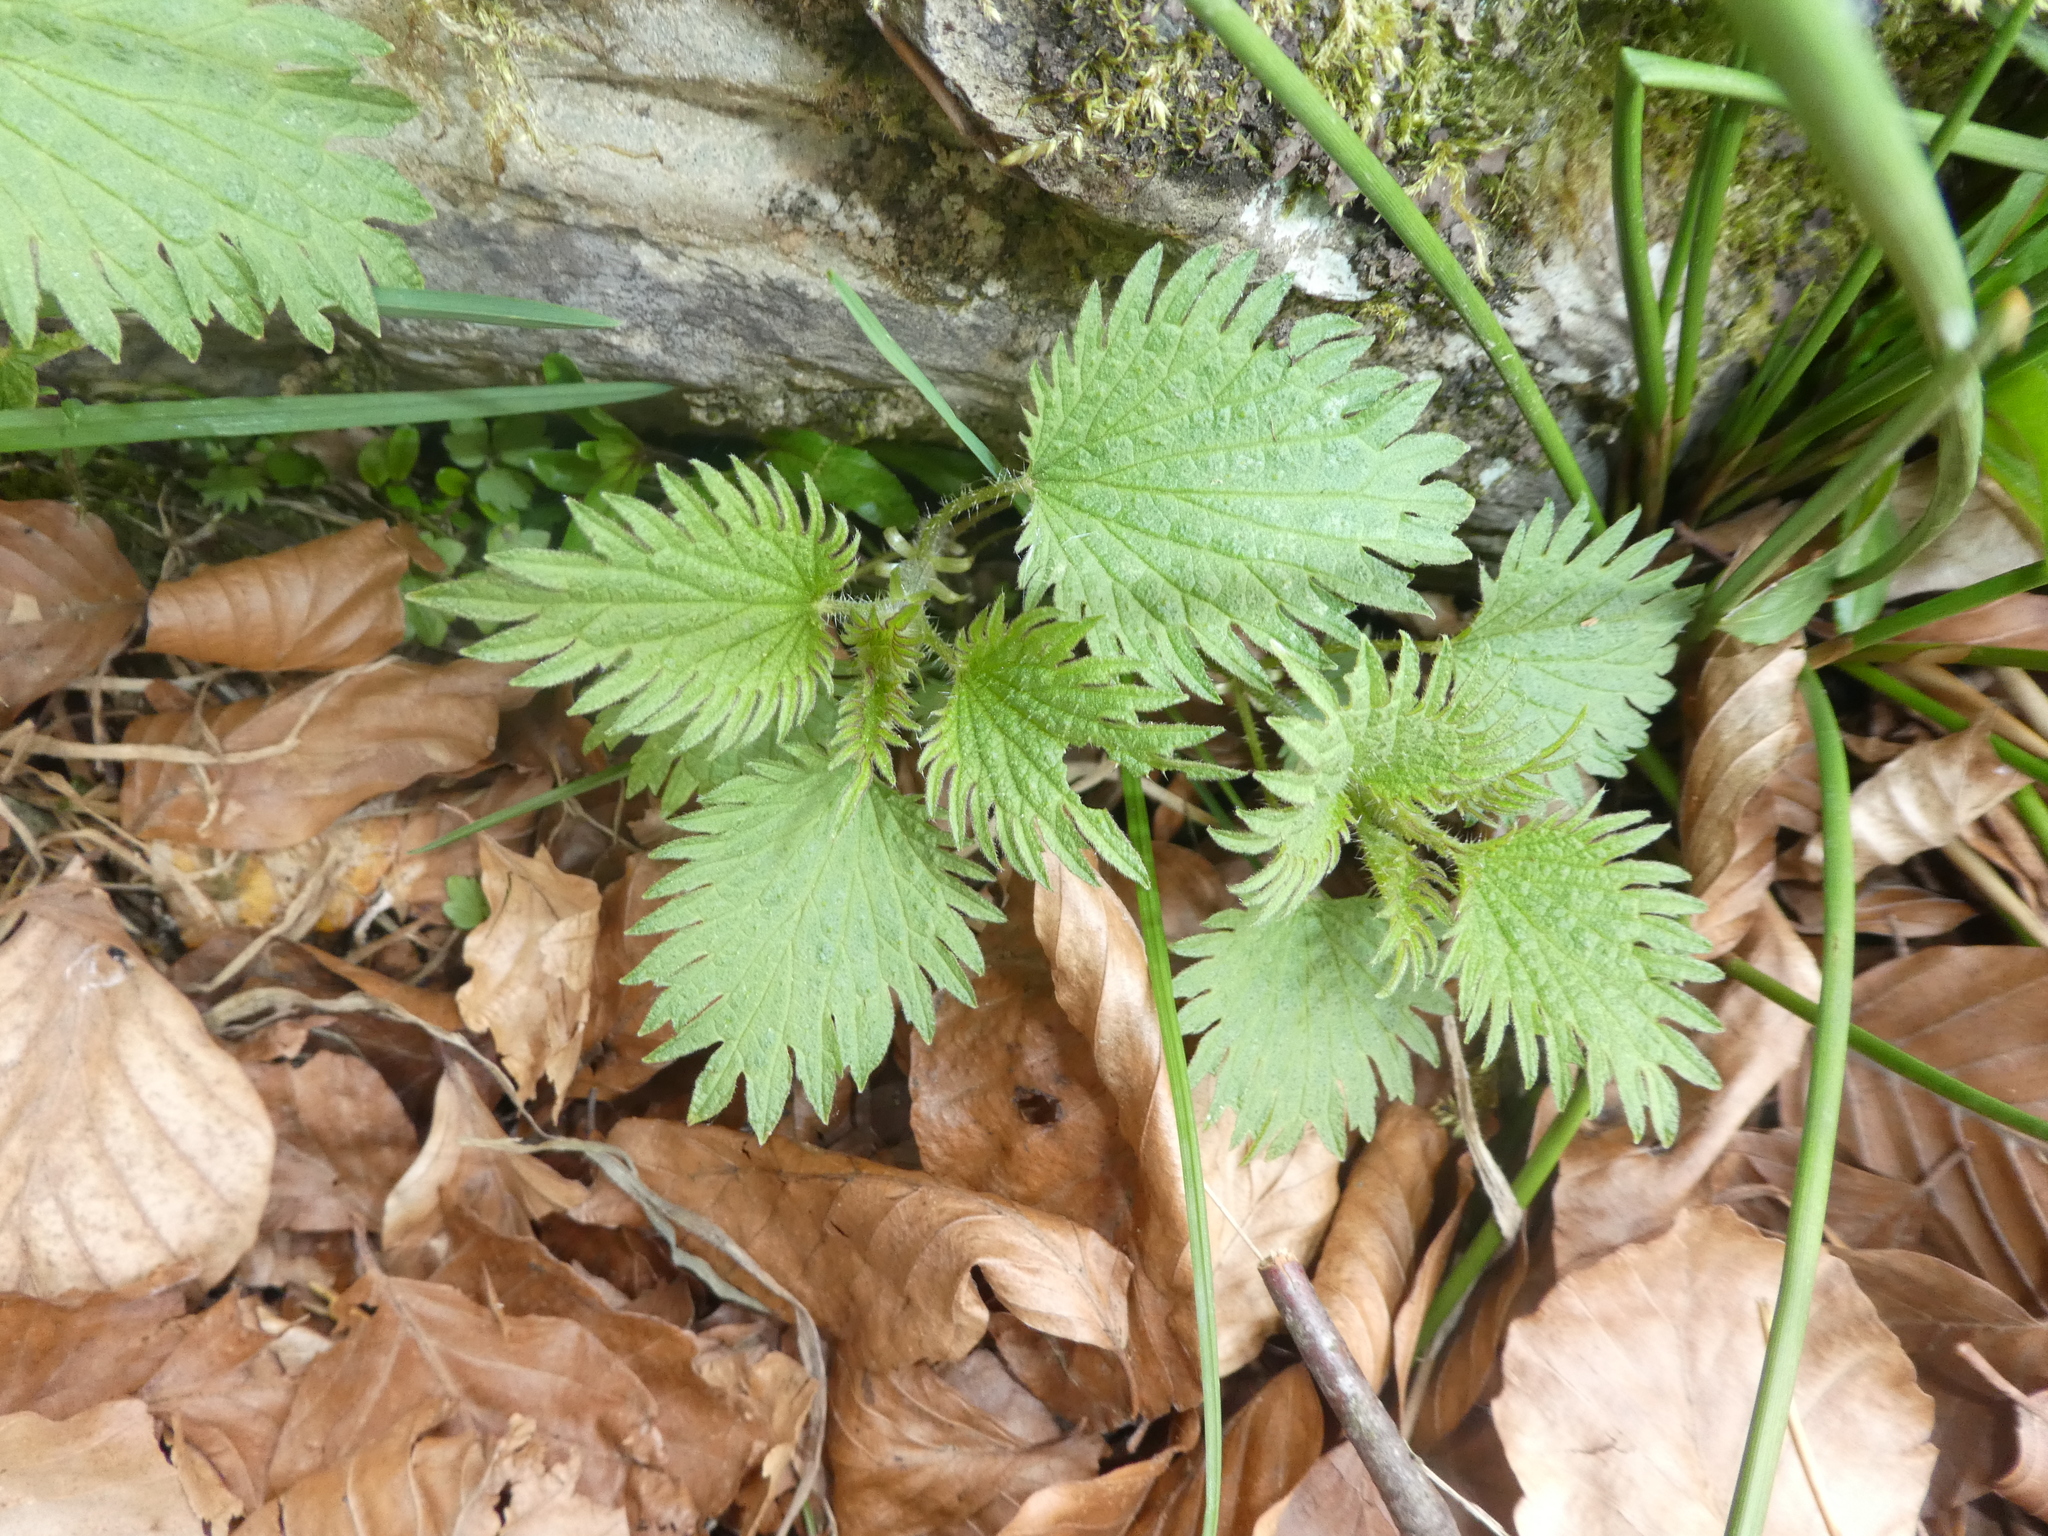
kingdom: Plantae
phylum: Tracheophyta
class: Magnoliopsida
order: Rosales
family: Urticaceae
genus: Urtica
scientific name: Urtica urens
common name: Dwarf nettle
